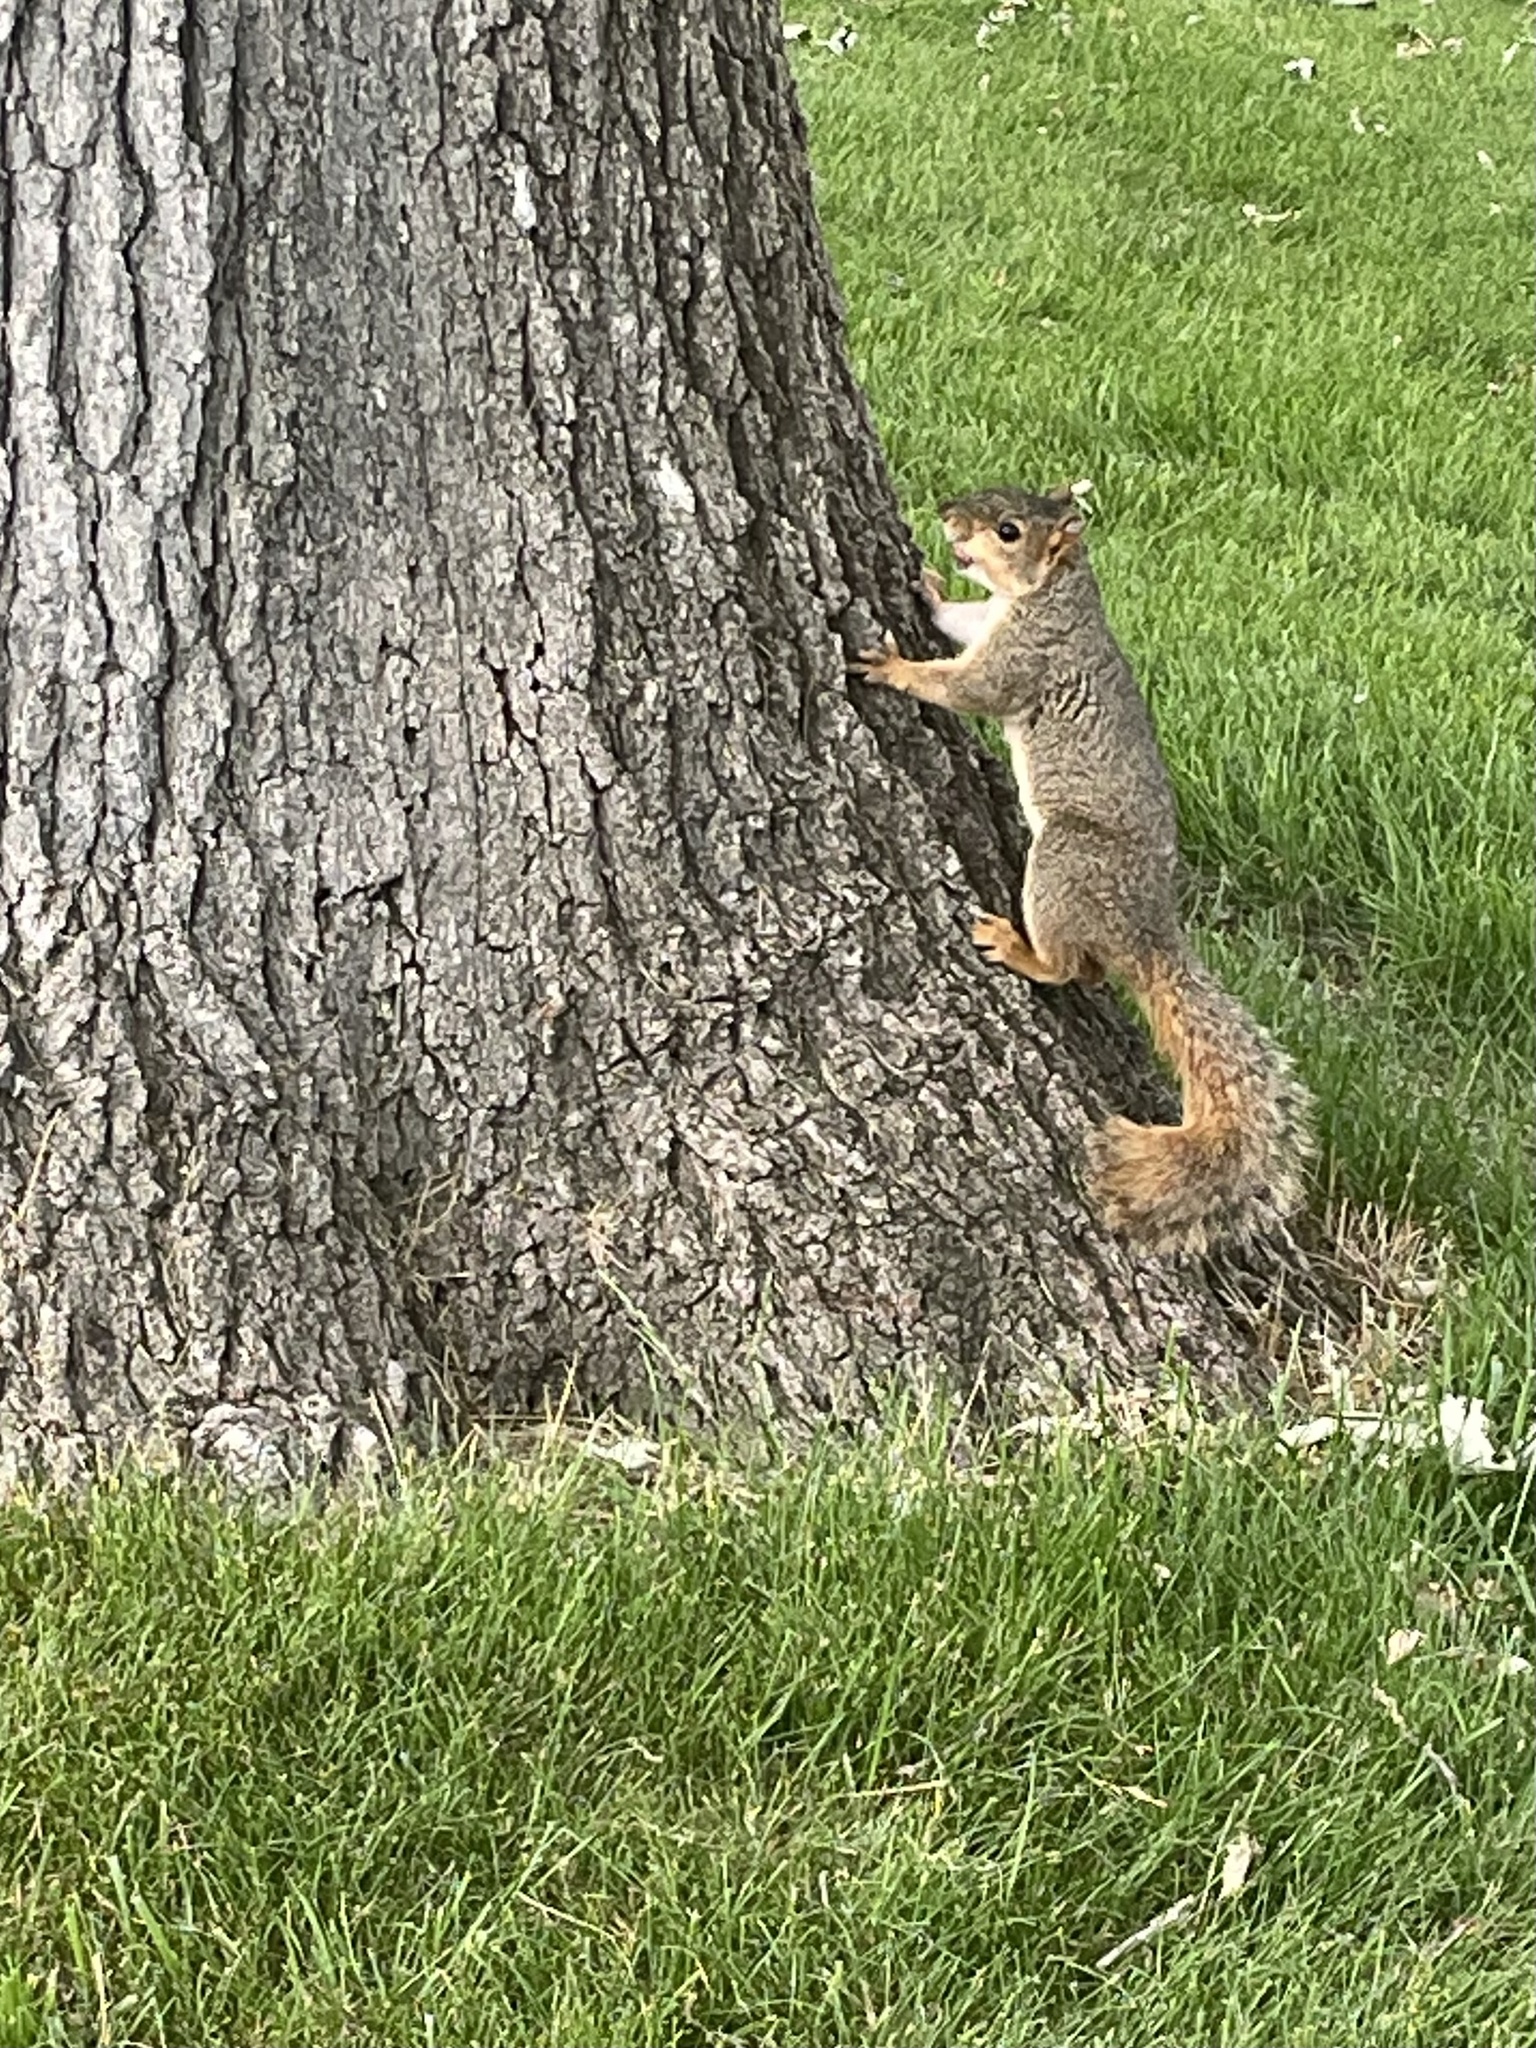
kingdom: Animalia
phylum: Chordata
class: Mammalia
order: Rodentia
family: Sciuridae
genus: Sciurus
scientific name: Sciurus niger
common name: Fox squirrel
